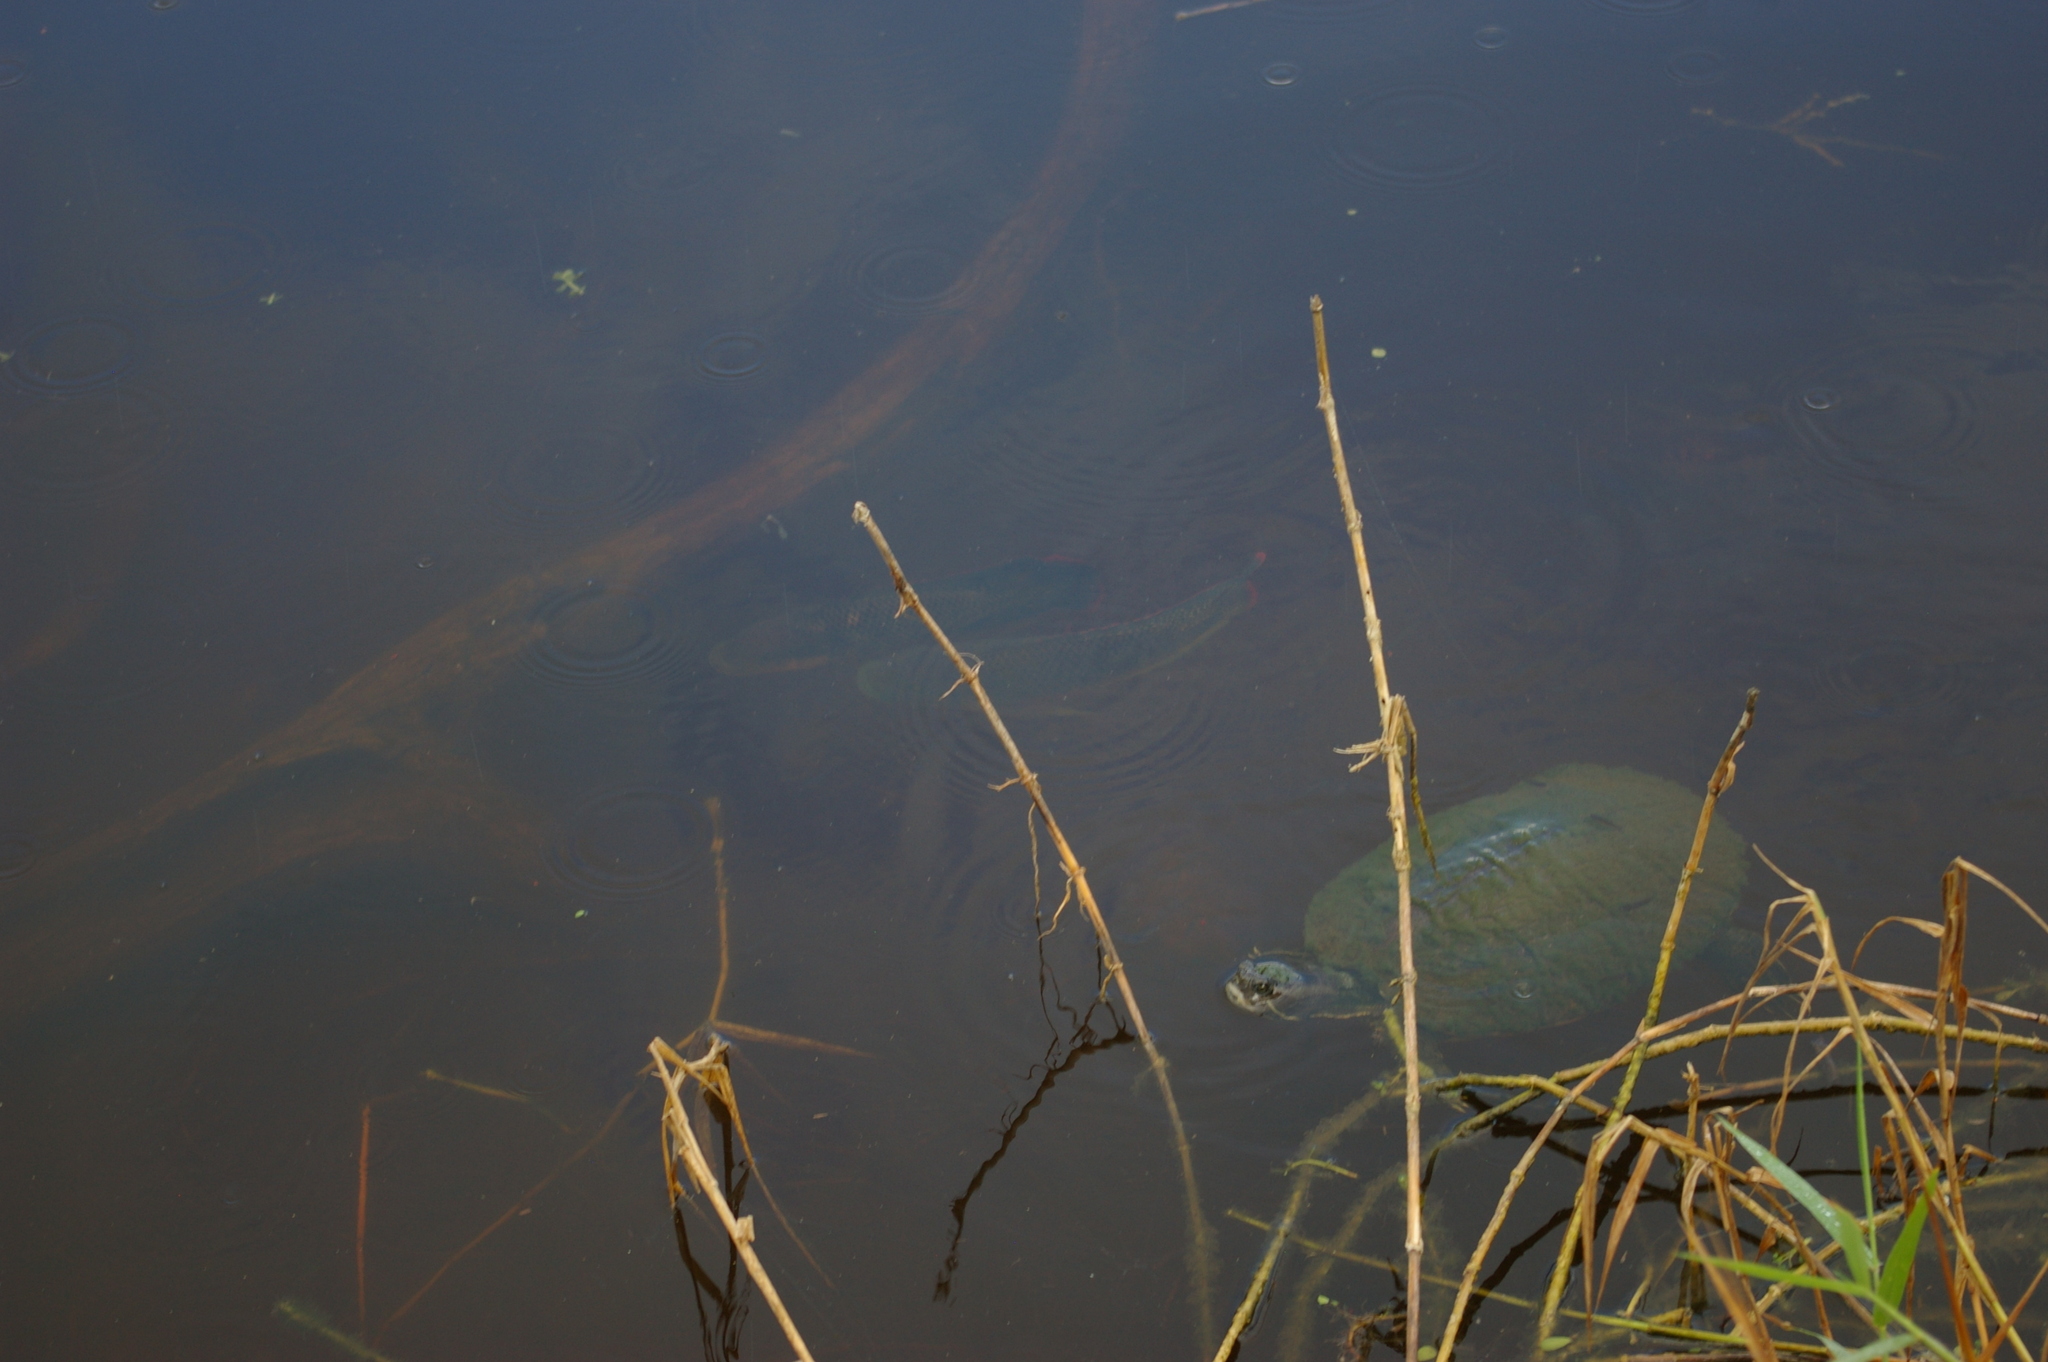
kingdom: Animalia
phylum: Chordata
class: Testudines
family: Emydidae
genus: Trachemys
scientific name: Trachemys decussata
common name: North antillean slider
